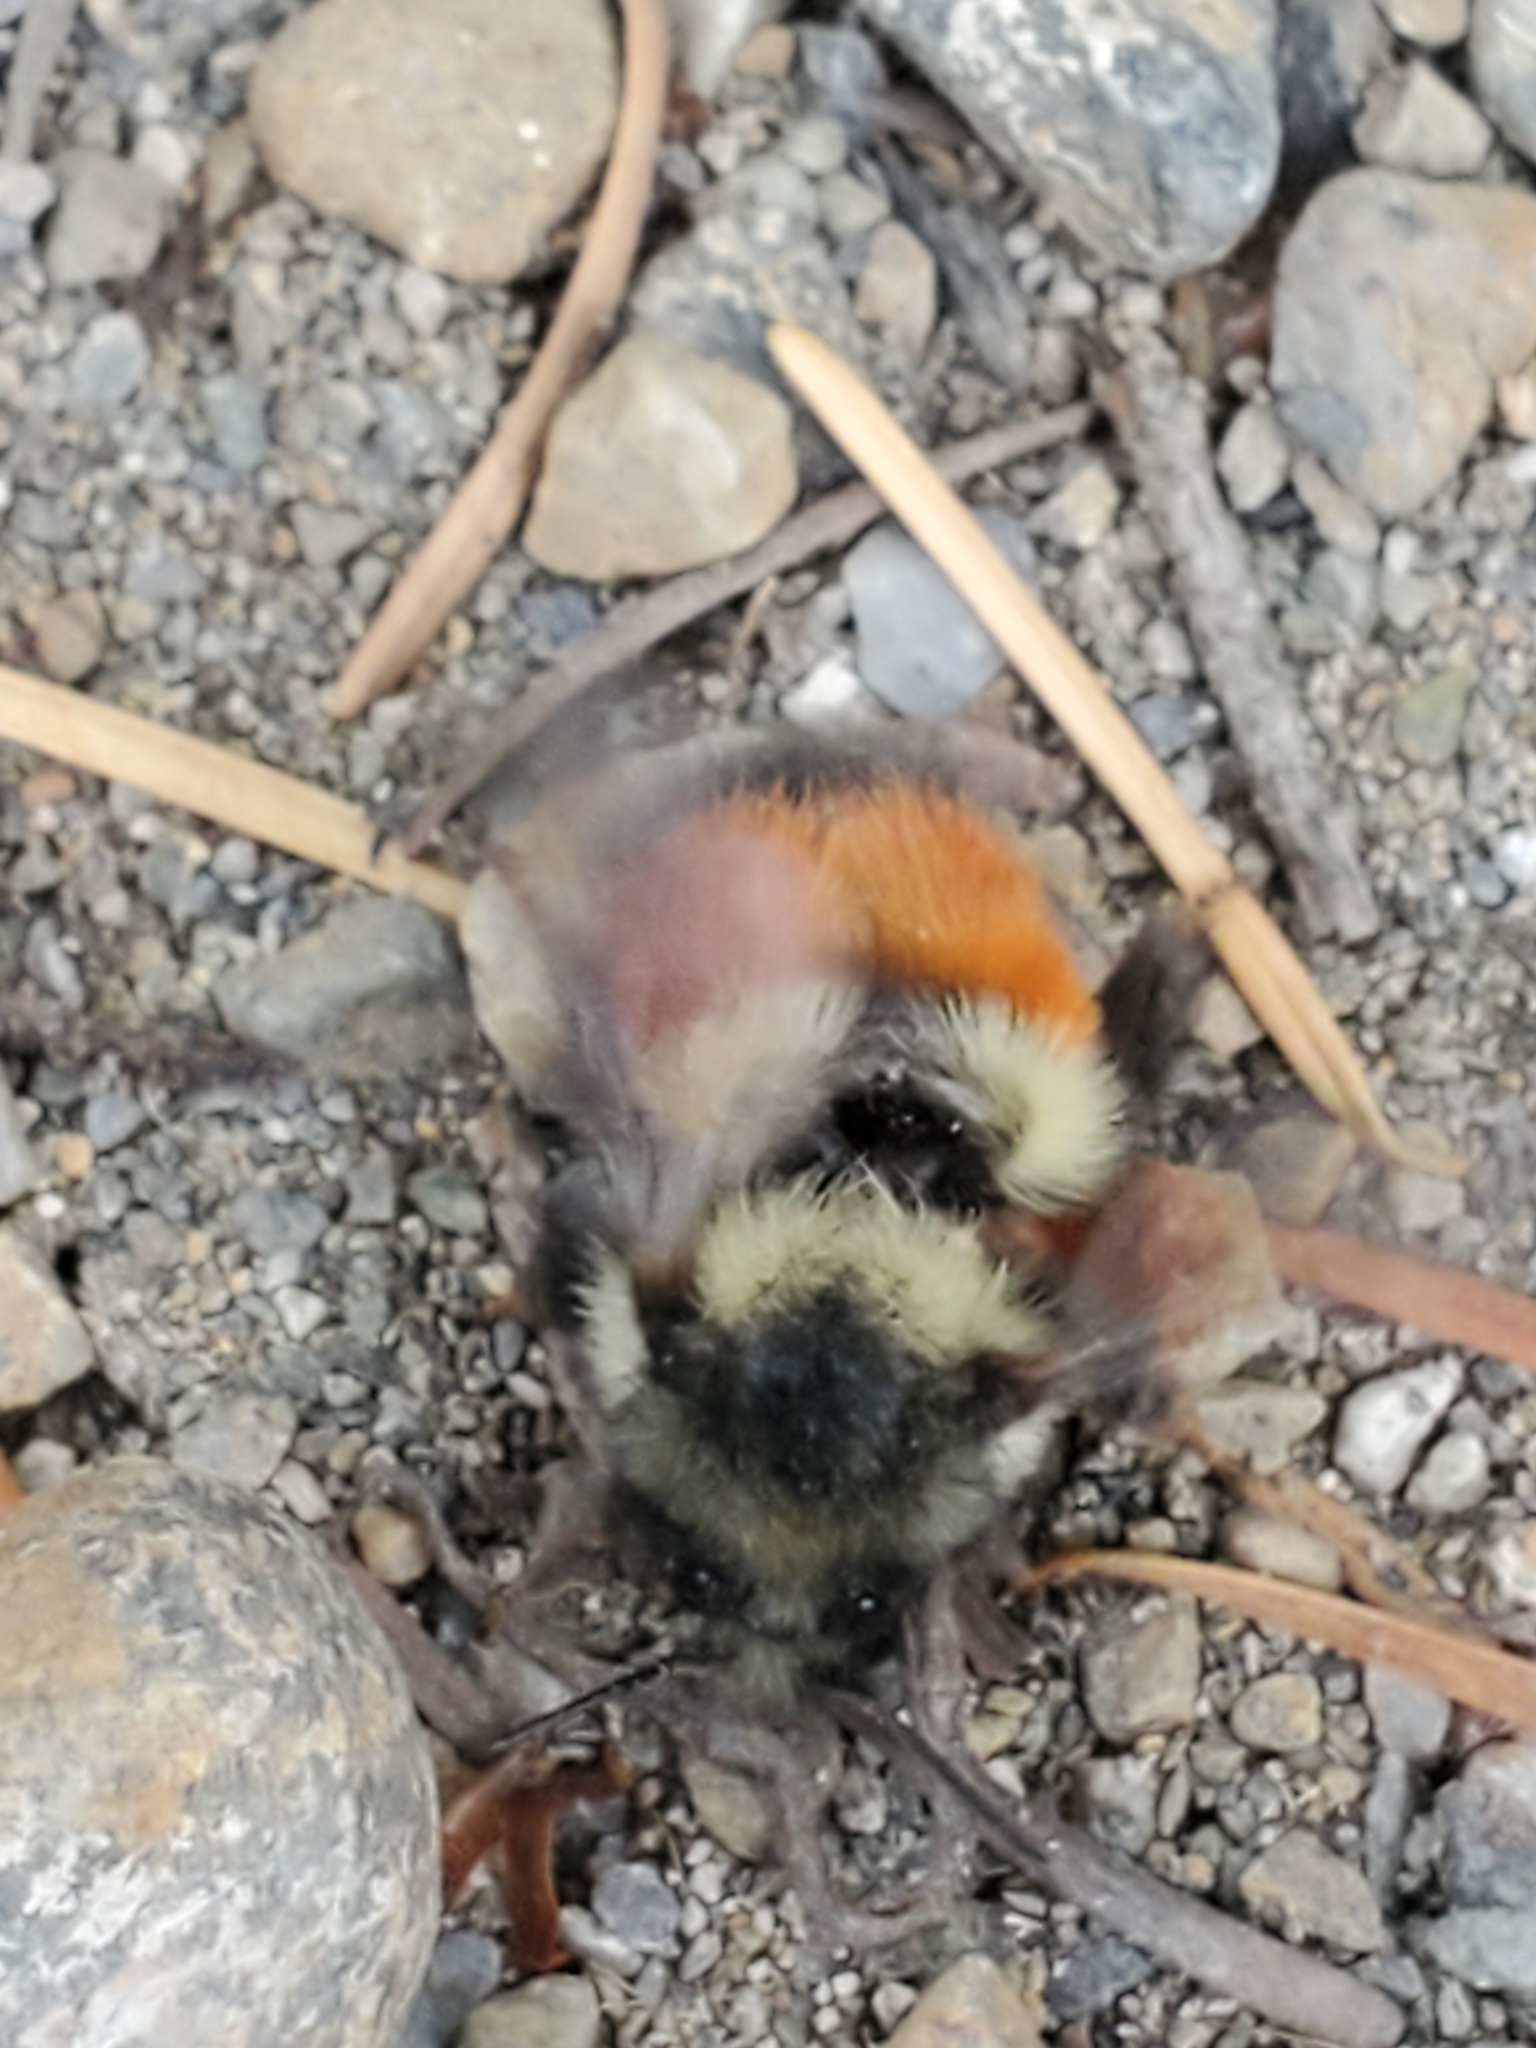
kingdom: Animalia
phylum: Arthropoda
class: Insecta
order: Hymenoptera
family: Apidae
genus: Bombus
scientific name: Bombus melanopygus
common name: Black tail bumble bee
